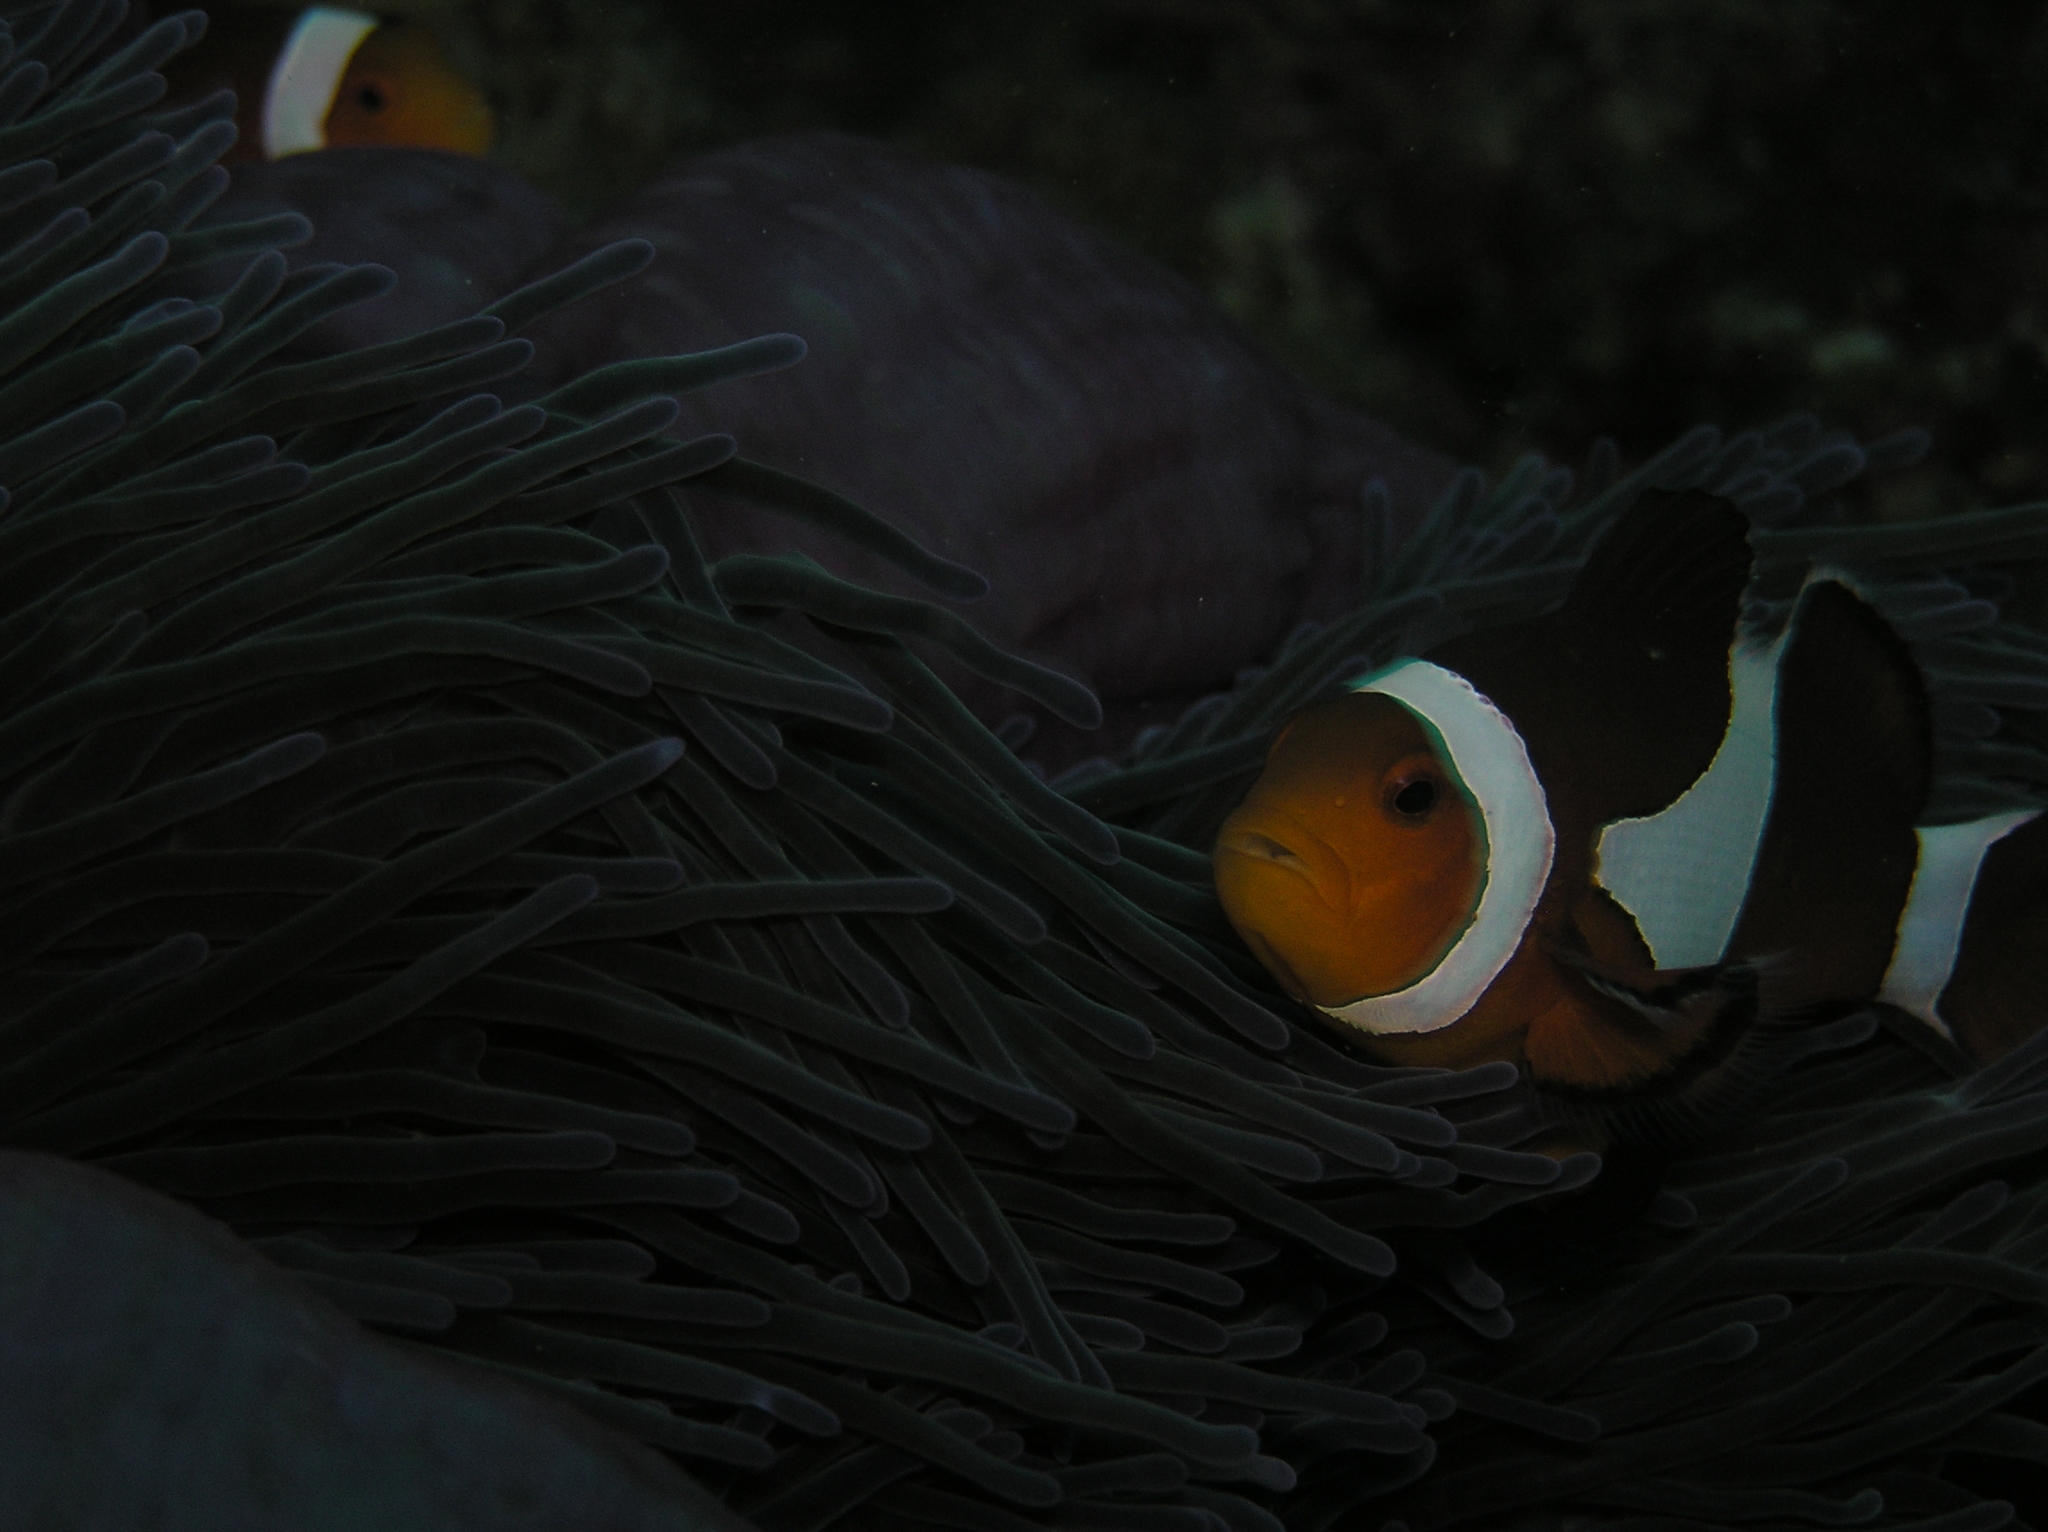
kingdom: Animalia
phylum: Chordata
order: Perciformes
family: Pomacentridae
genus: Amphiprion
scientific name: Amphiprion ocellaris
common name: Clown anemonefish
